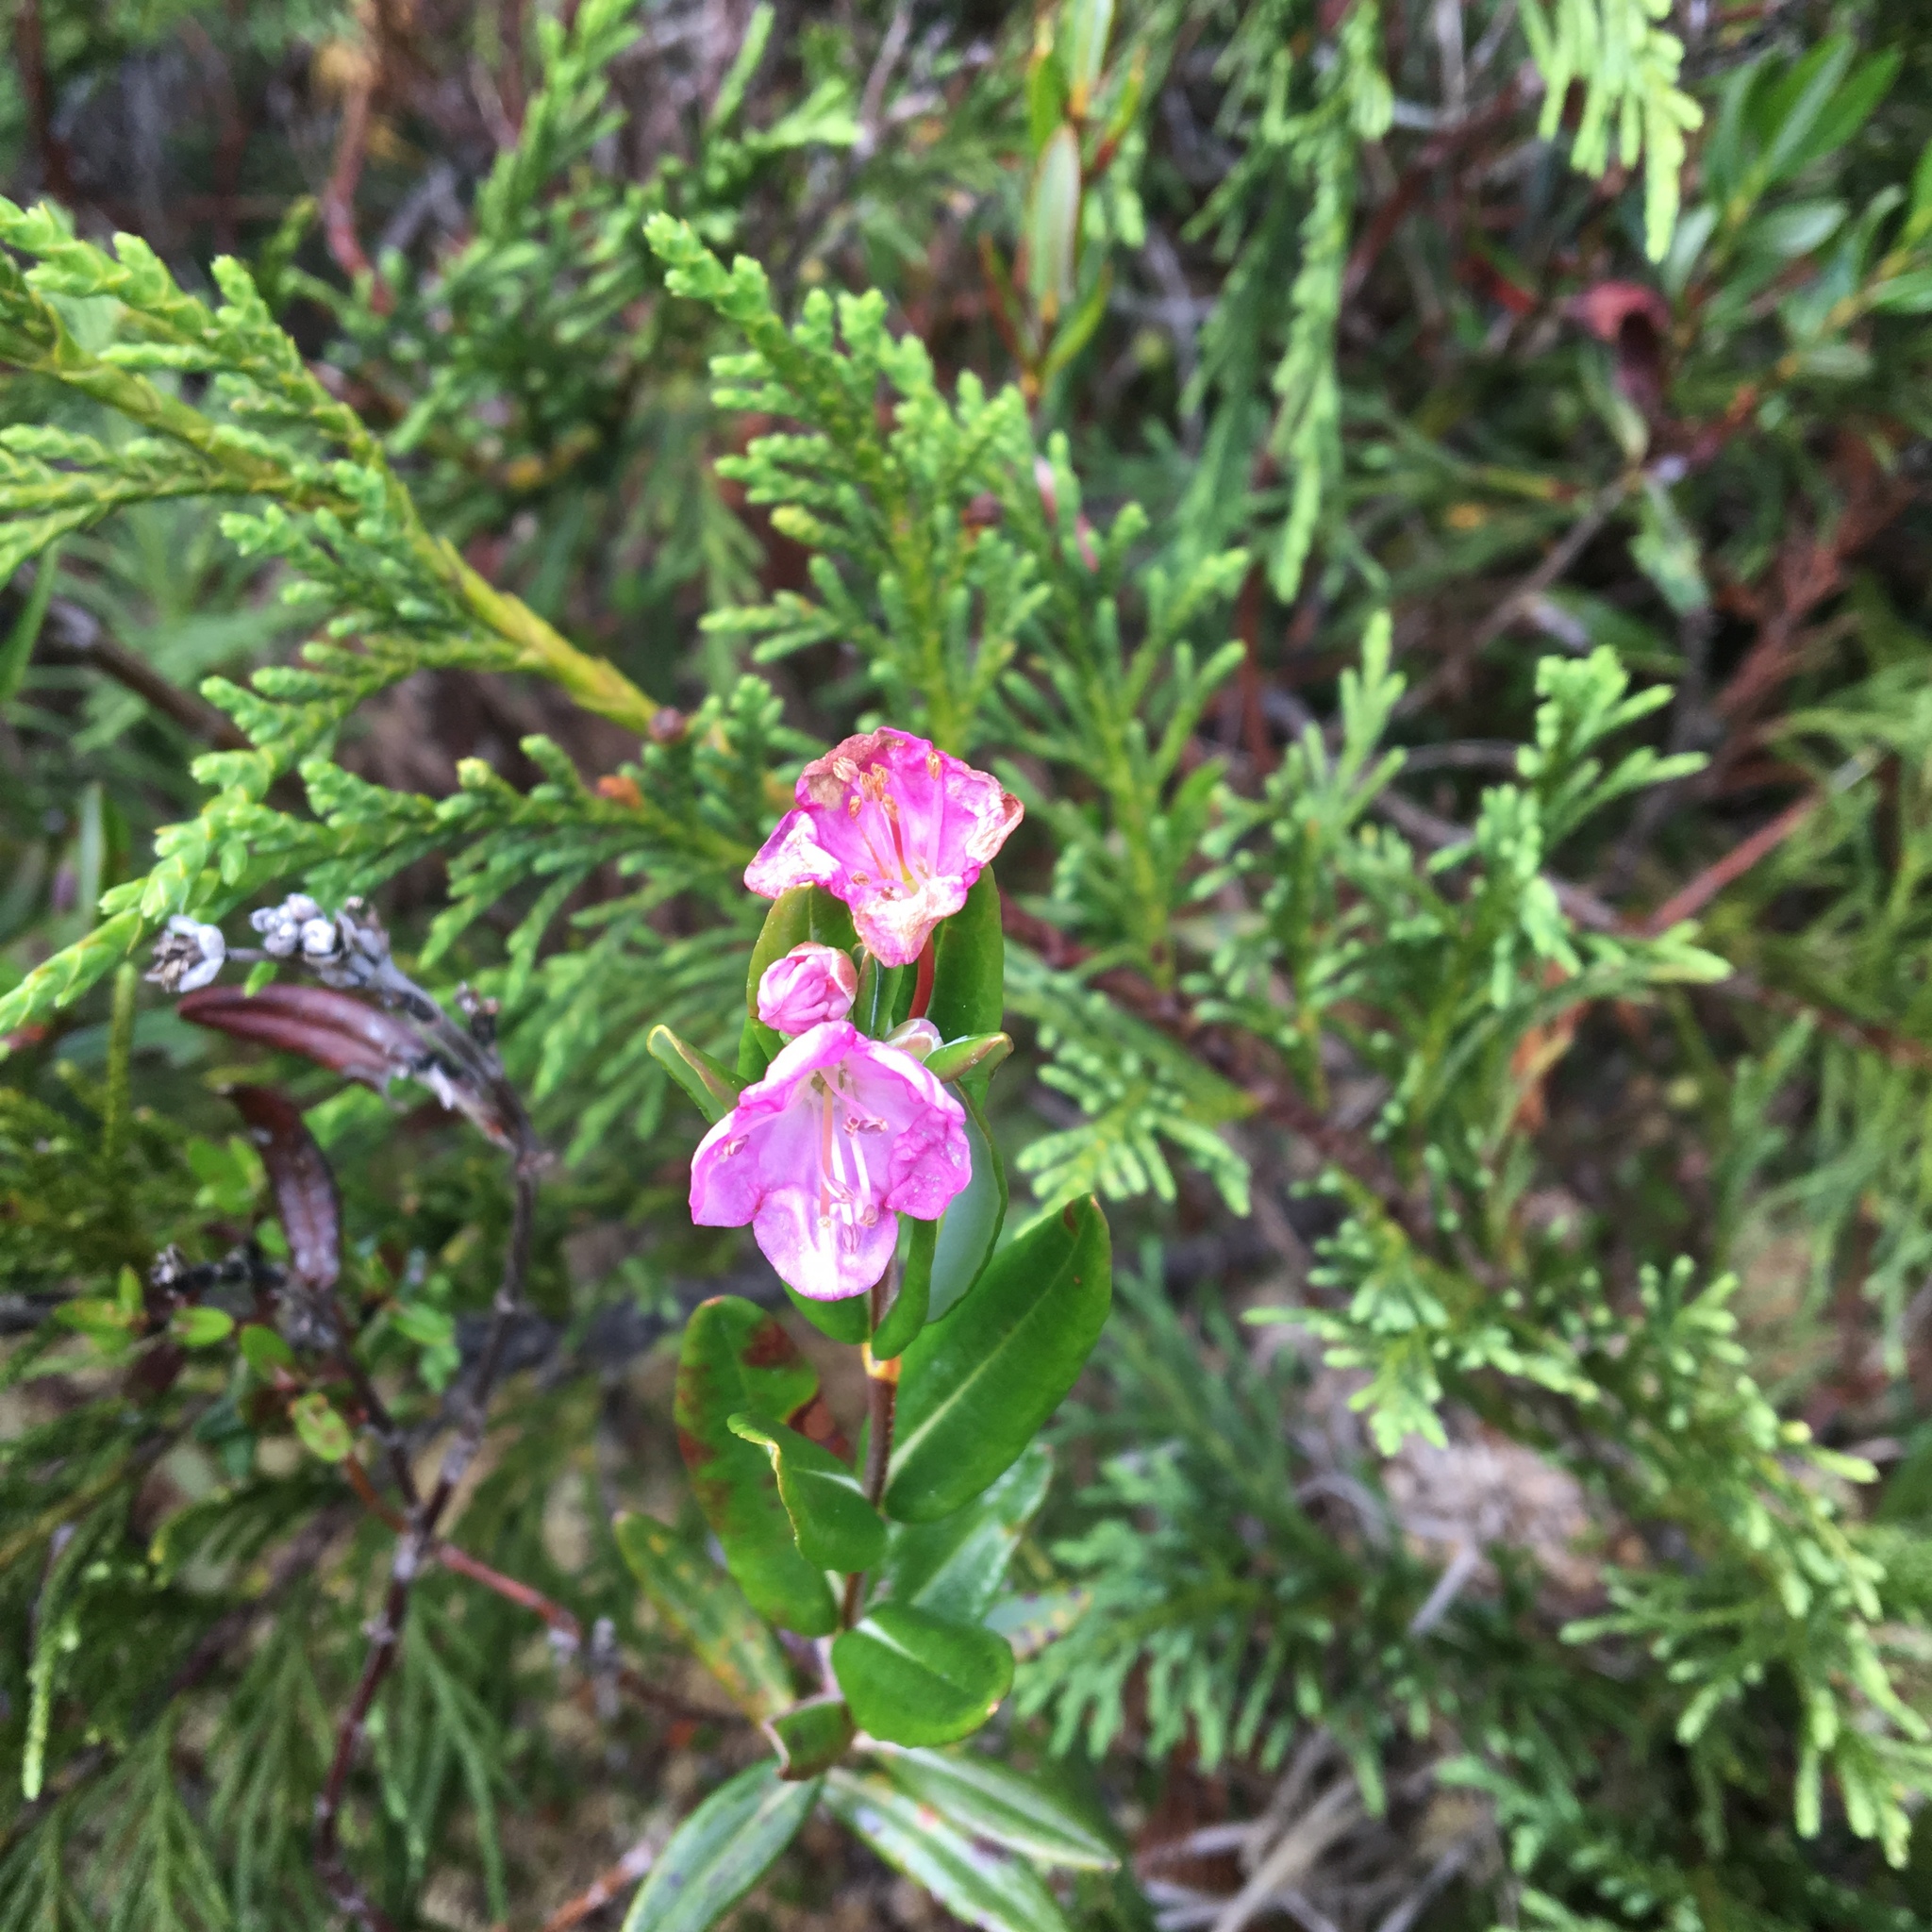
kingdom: Plantae
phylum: Tracheophyta
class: Magnoliopsida
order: Ericales
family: Ericaceae
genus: Kalmia
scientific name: Kalmia microphylla
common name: Alpine bog laurel
